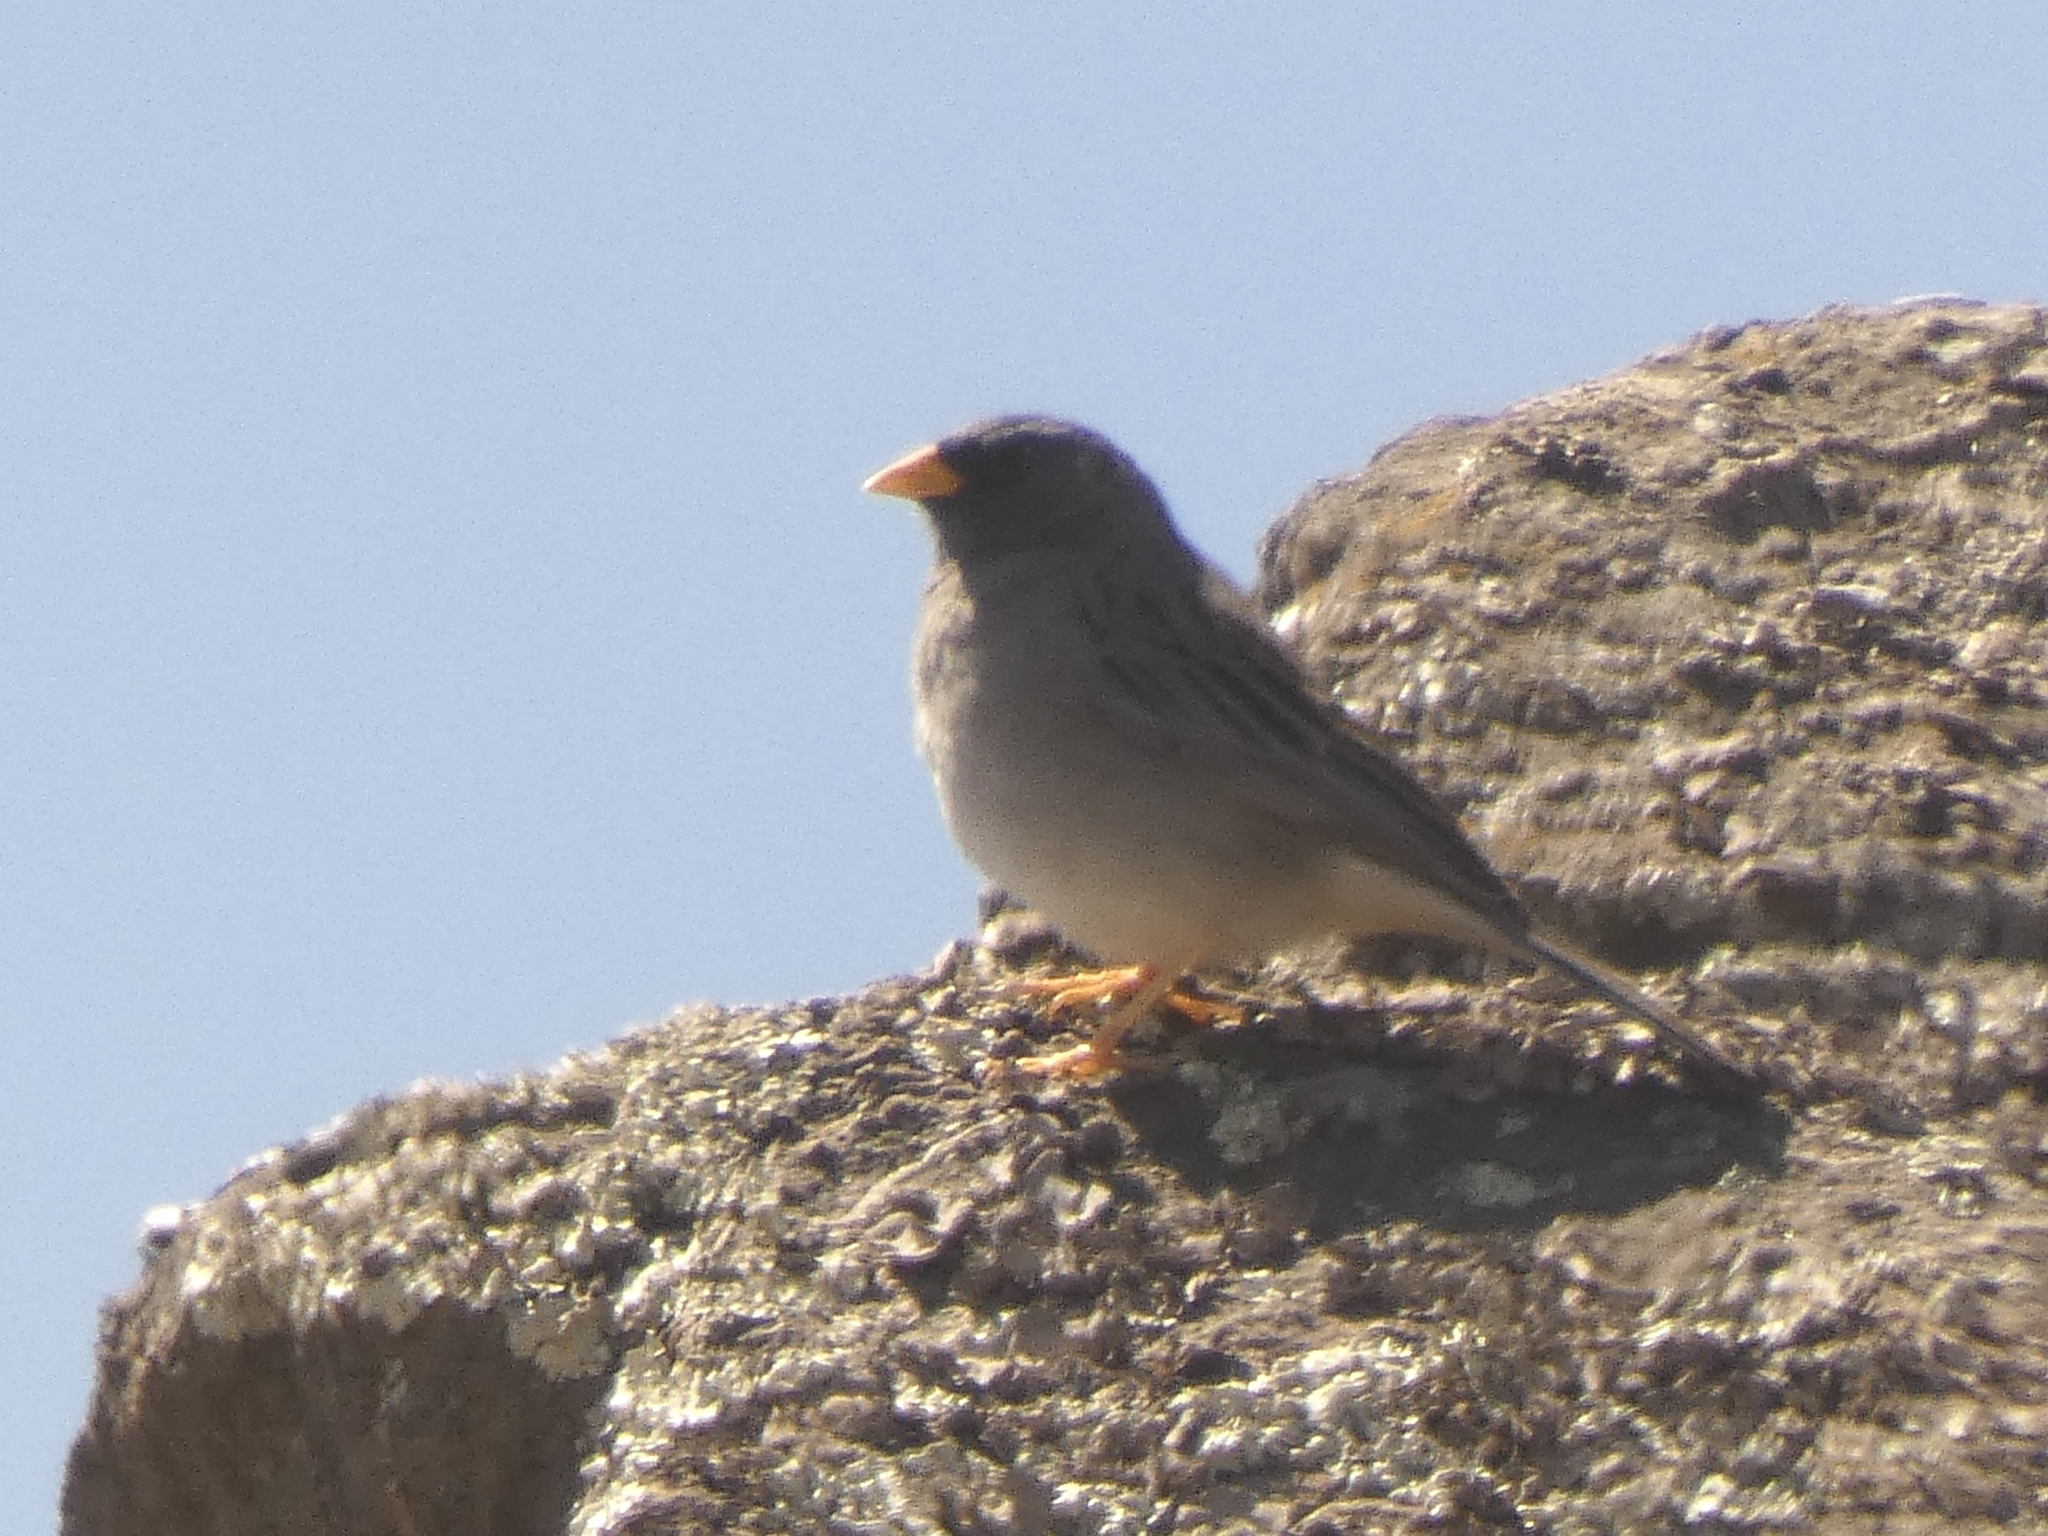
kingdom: Animalia
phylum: Chordata
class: Aves
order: Passeriformes
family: Thraupidae
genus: Porphyrospiza
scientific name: Porphyrospiza alaudina
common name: Band-tailed sierra finch
